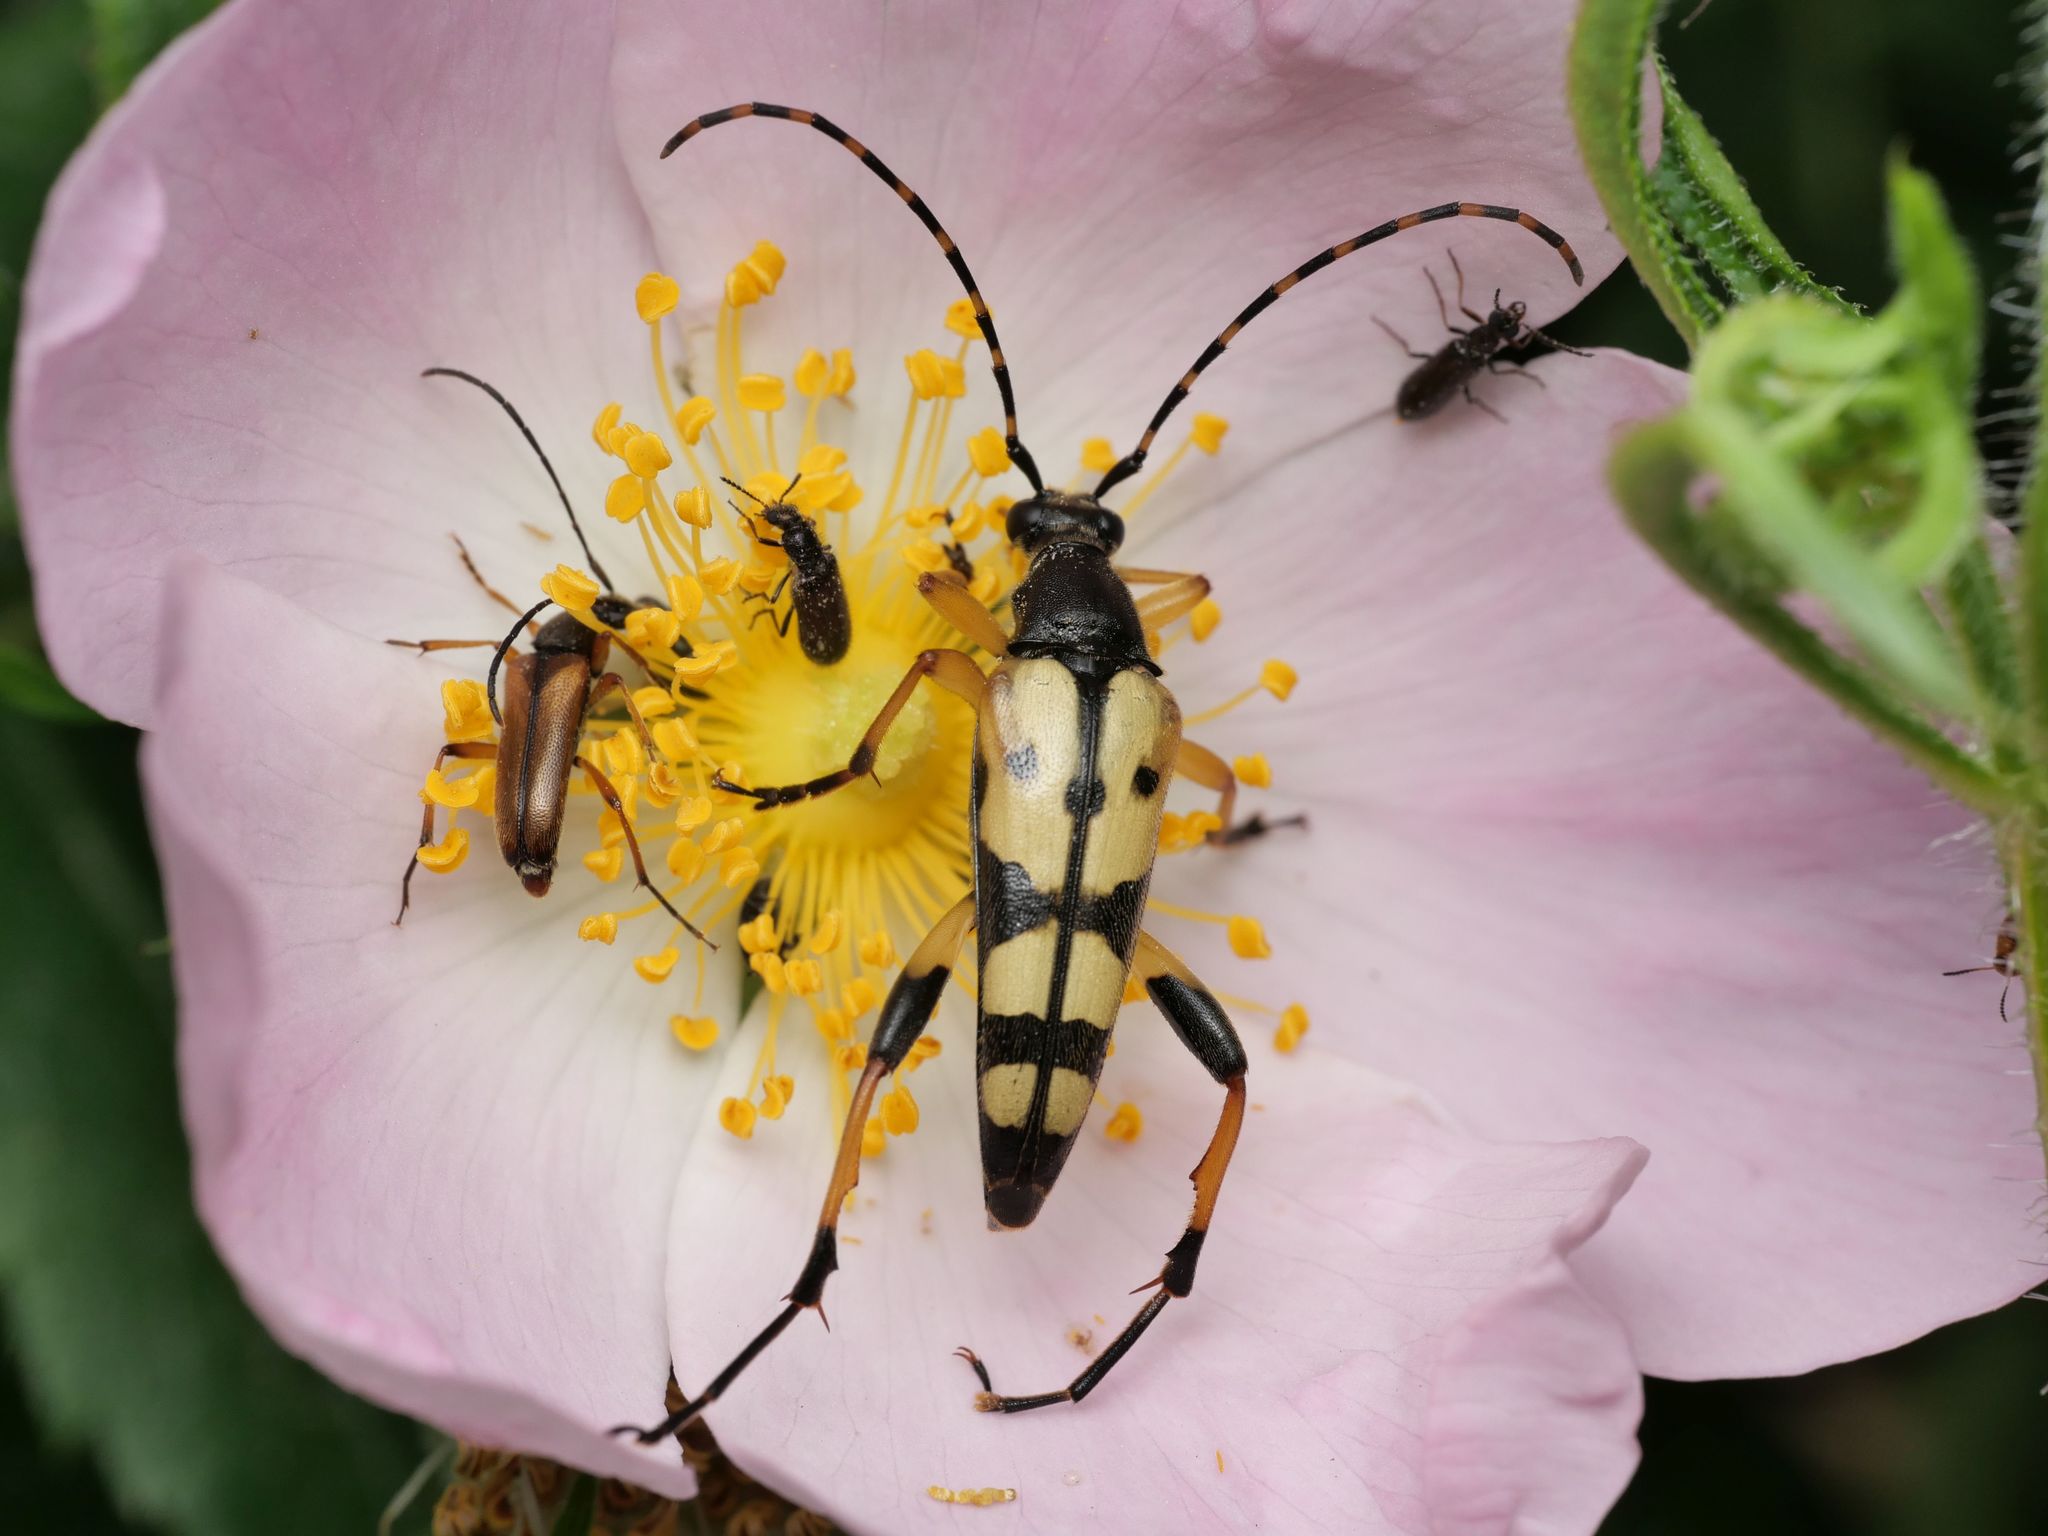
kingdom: Animalia
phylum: Arthropoda
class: Insecta
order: Coleoptera
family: Cerambycidae
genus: Rutpela
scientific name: Rutpela maculata
